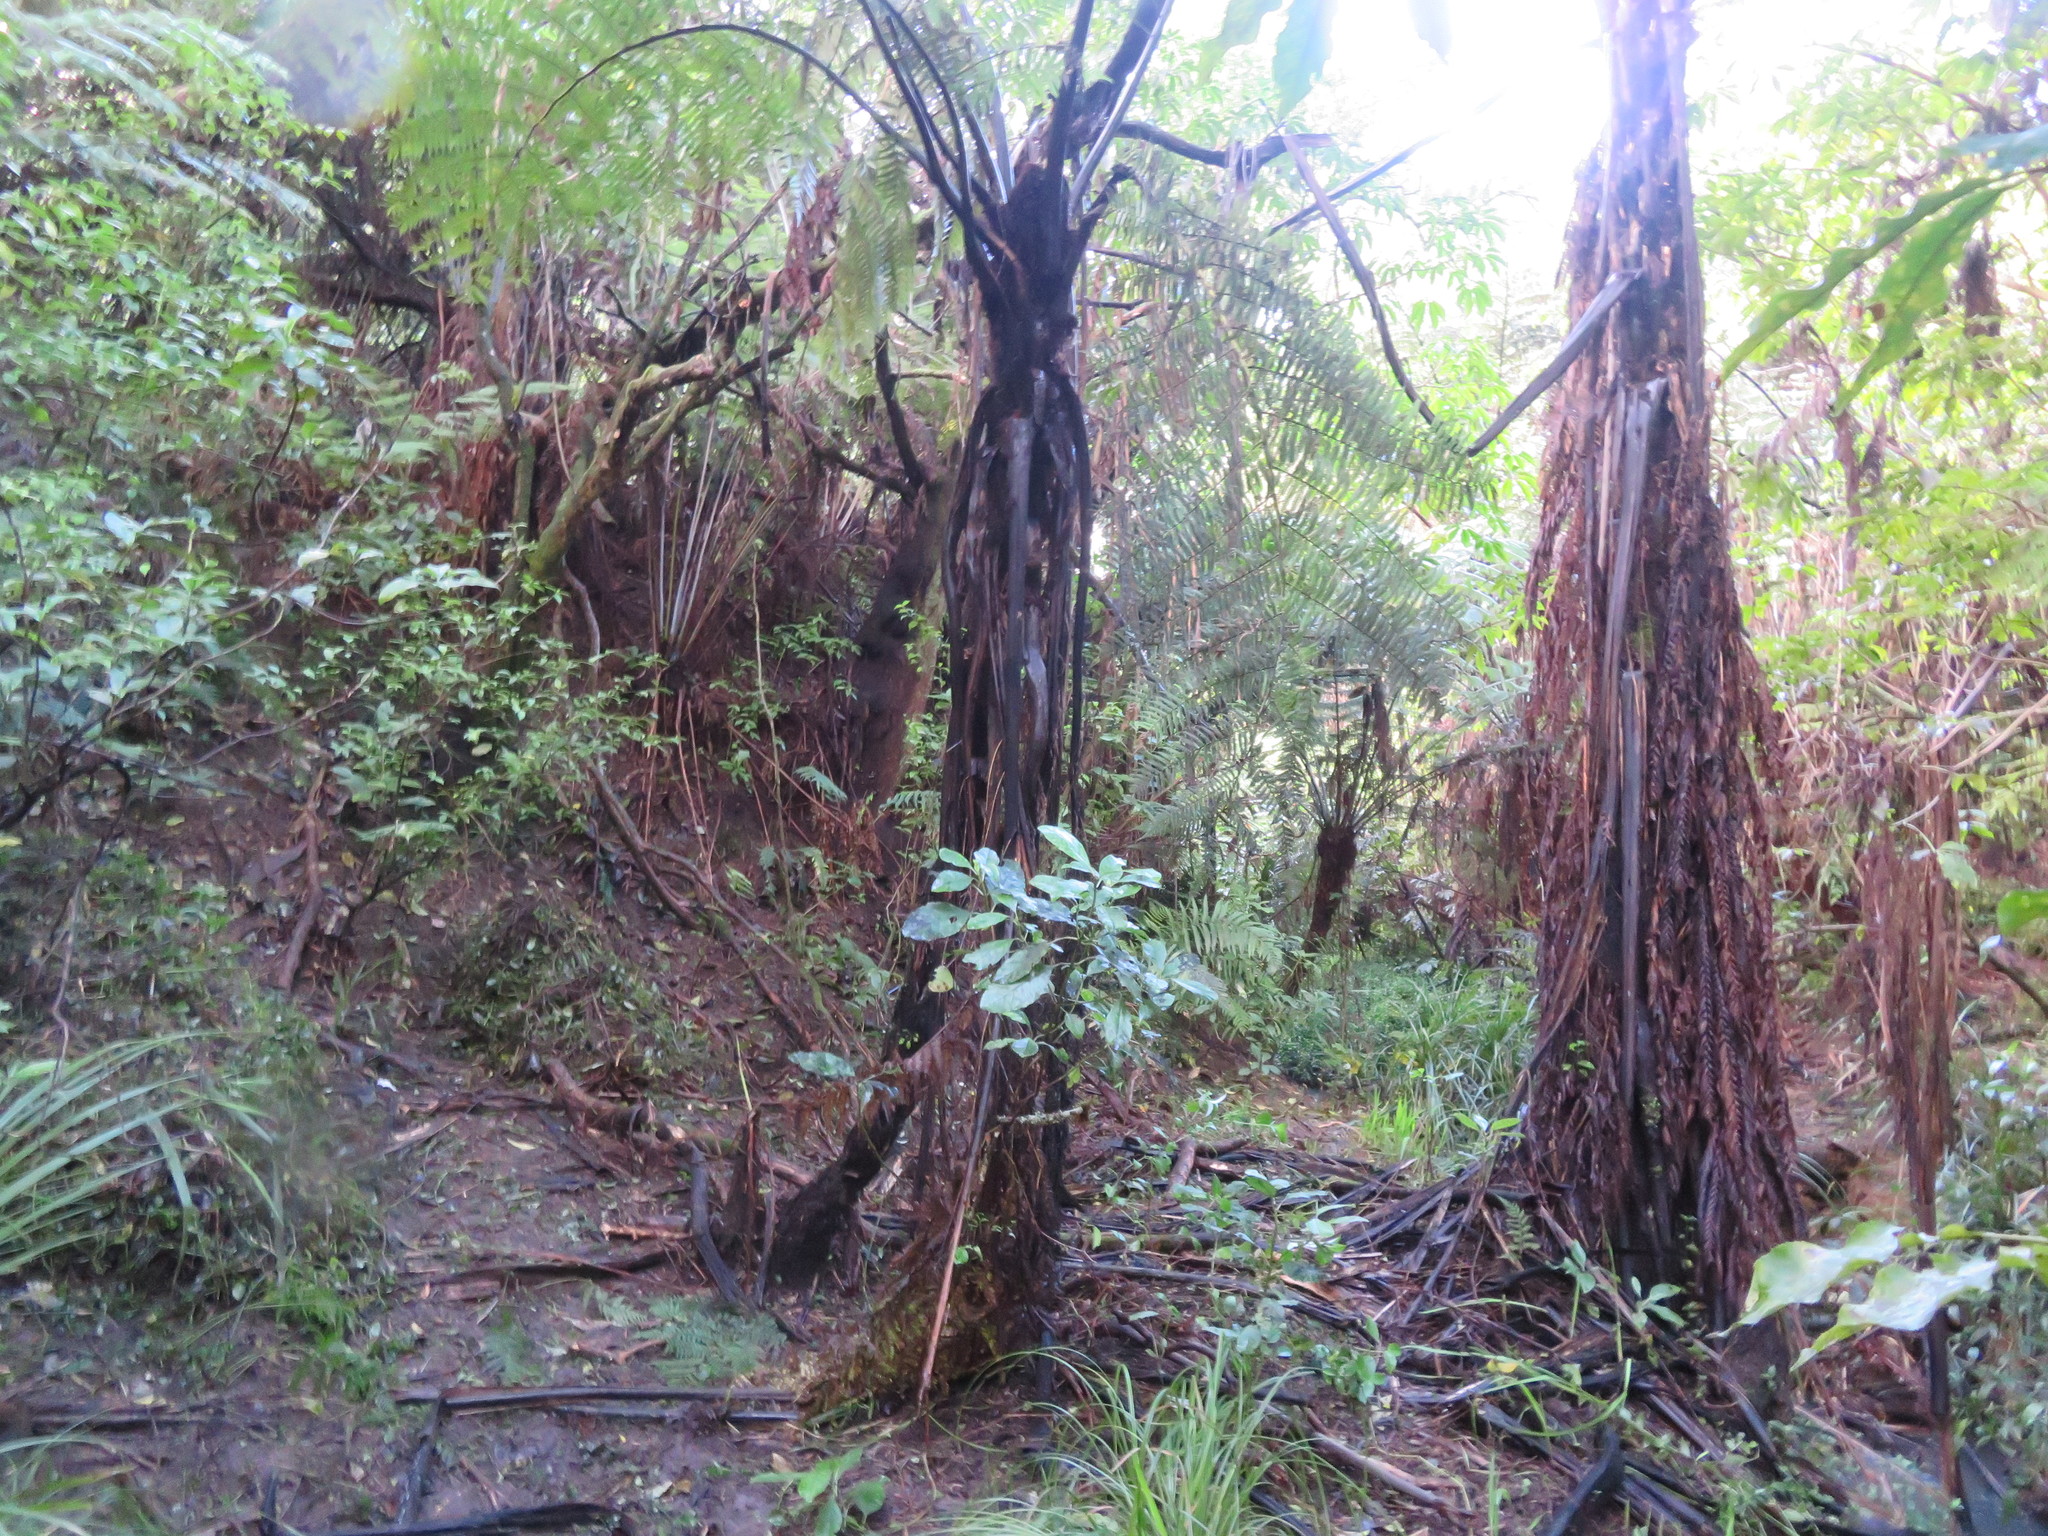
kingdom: Plantae
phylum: Tracheophyta
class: Polypodiopsida
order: Cyatheales
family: Cyatheaceae
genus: Sphaeropteris
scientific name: Sphaeropteris medullaris
